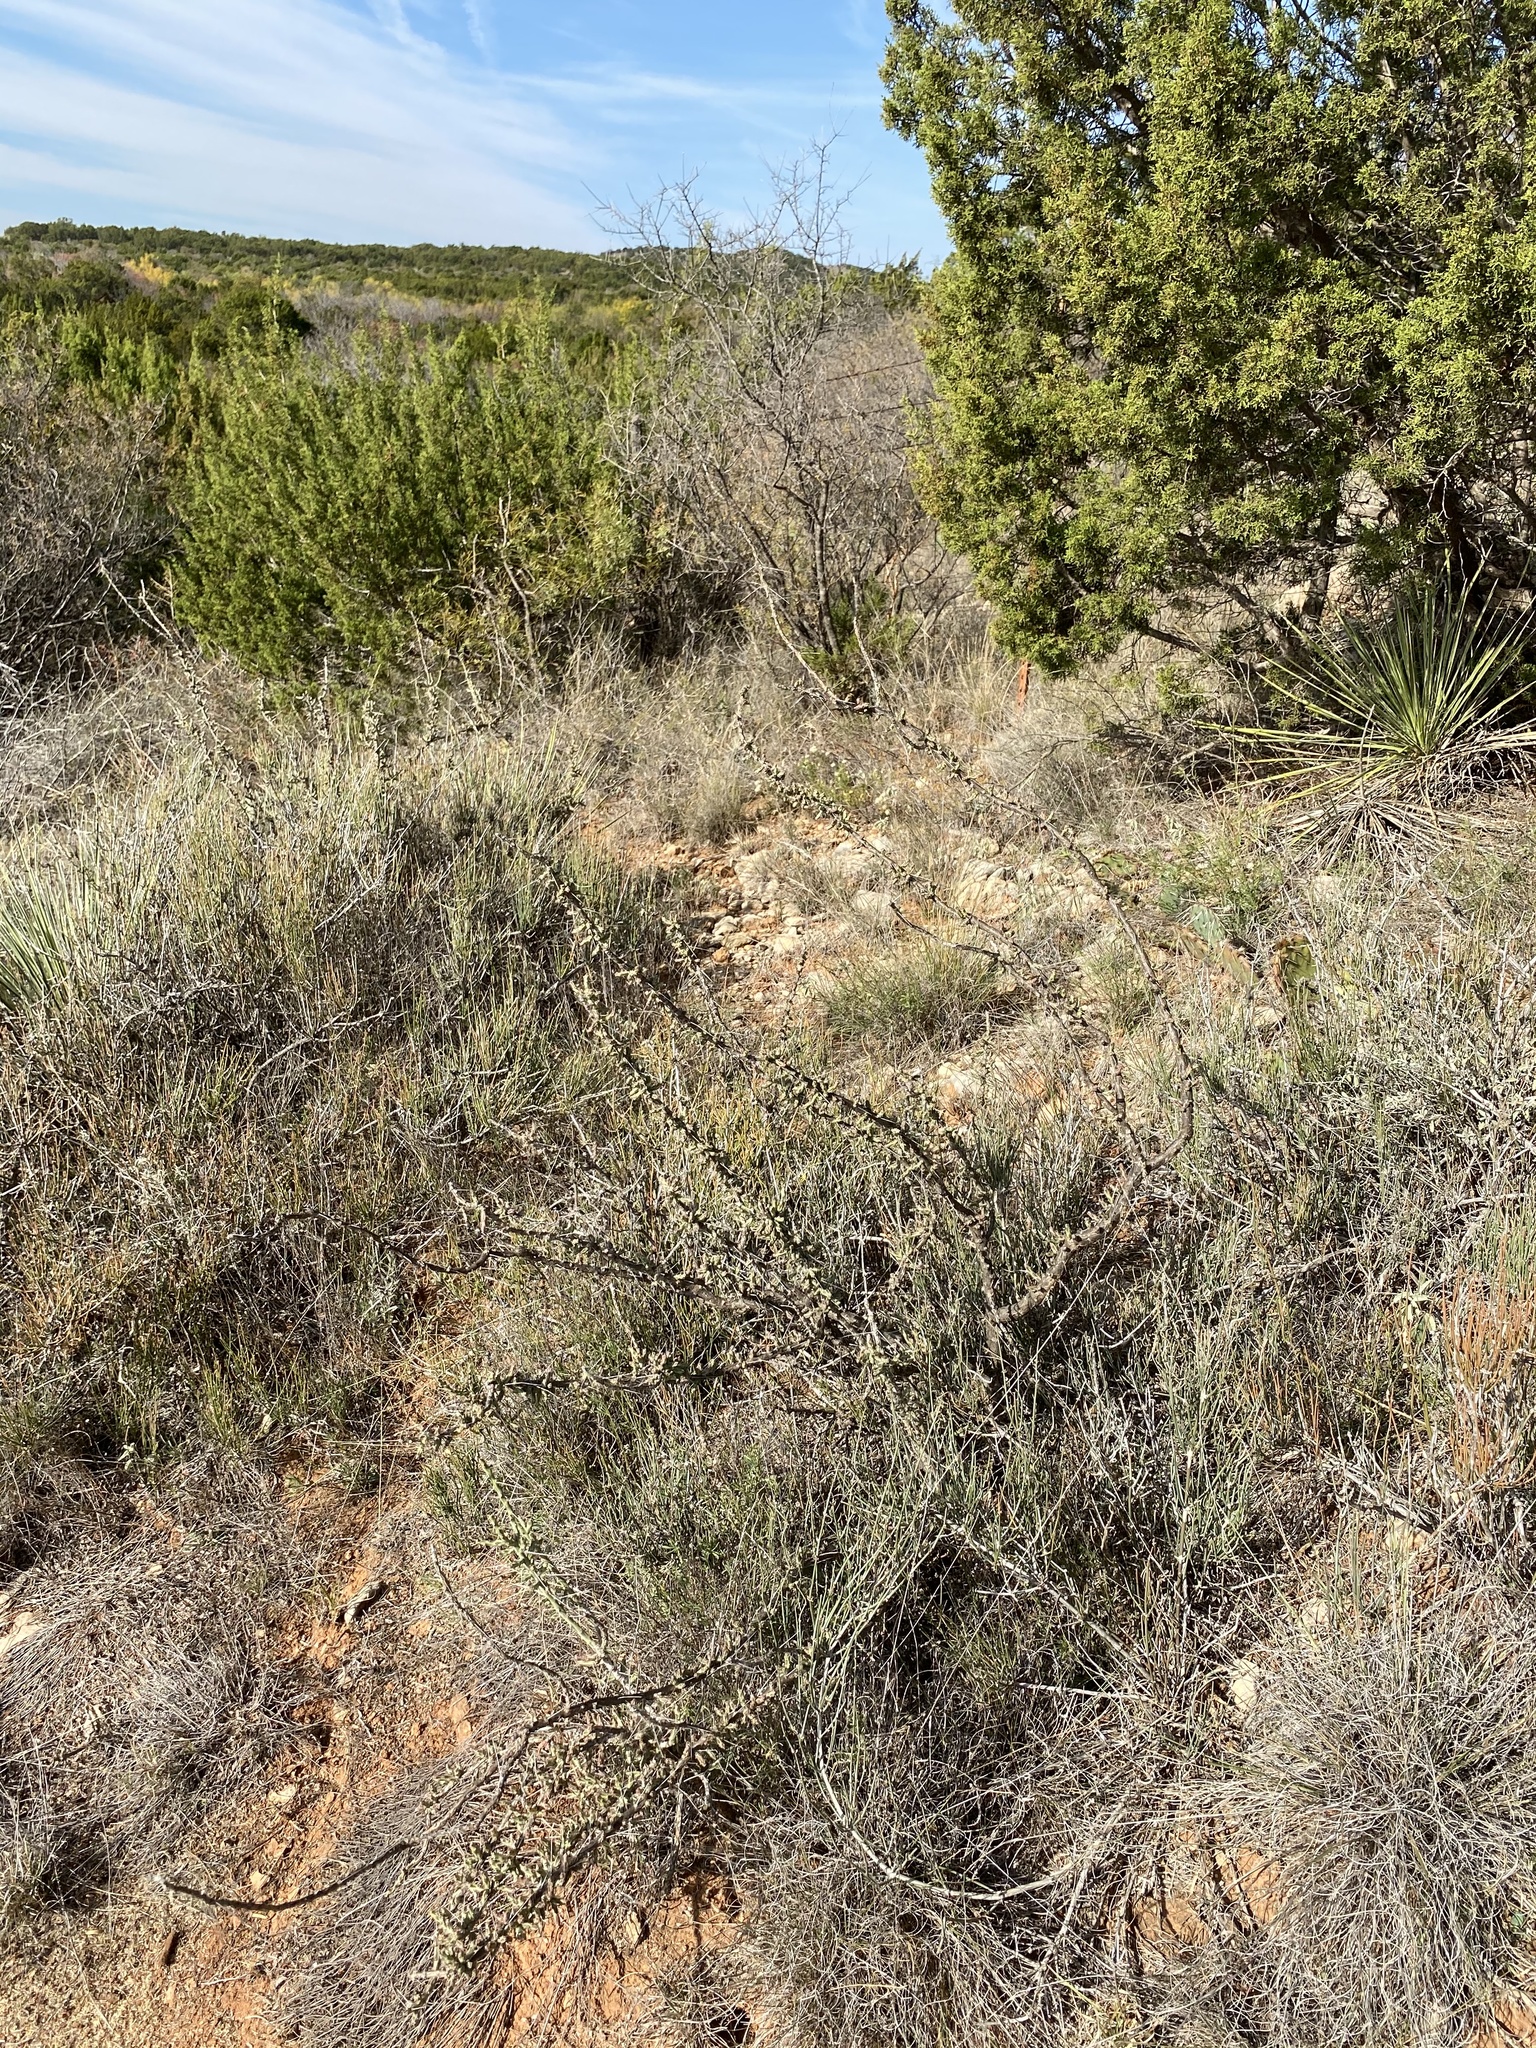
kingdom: Plantae
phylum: Tracheophyta
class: Magnoliopsida
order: Caryophyllales
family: Cactaceae
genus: Cylindropuntia
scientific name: Cylindropuntia leptocaulis
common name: Christmas cactus
